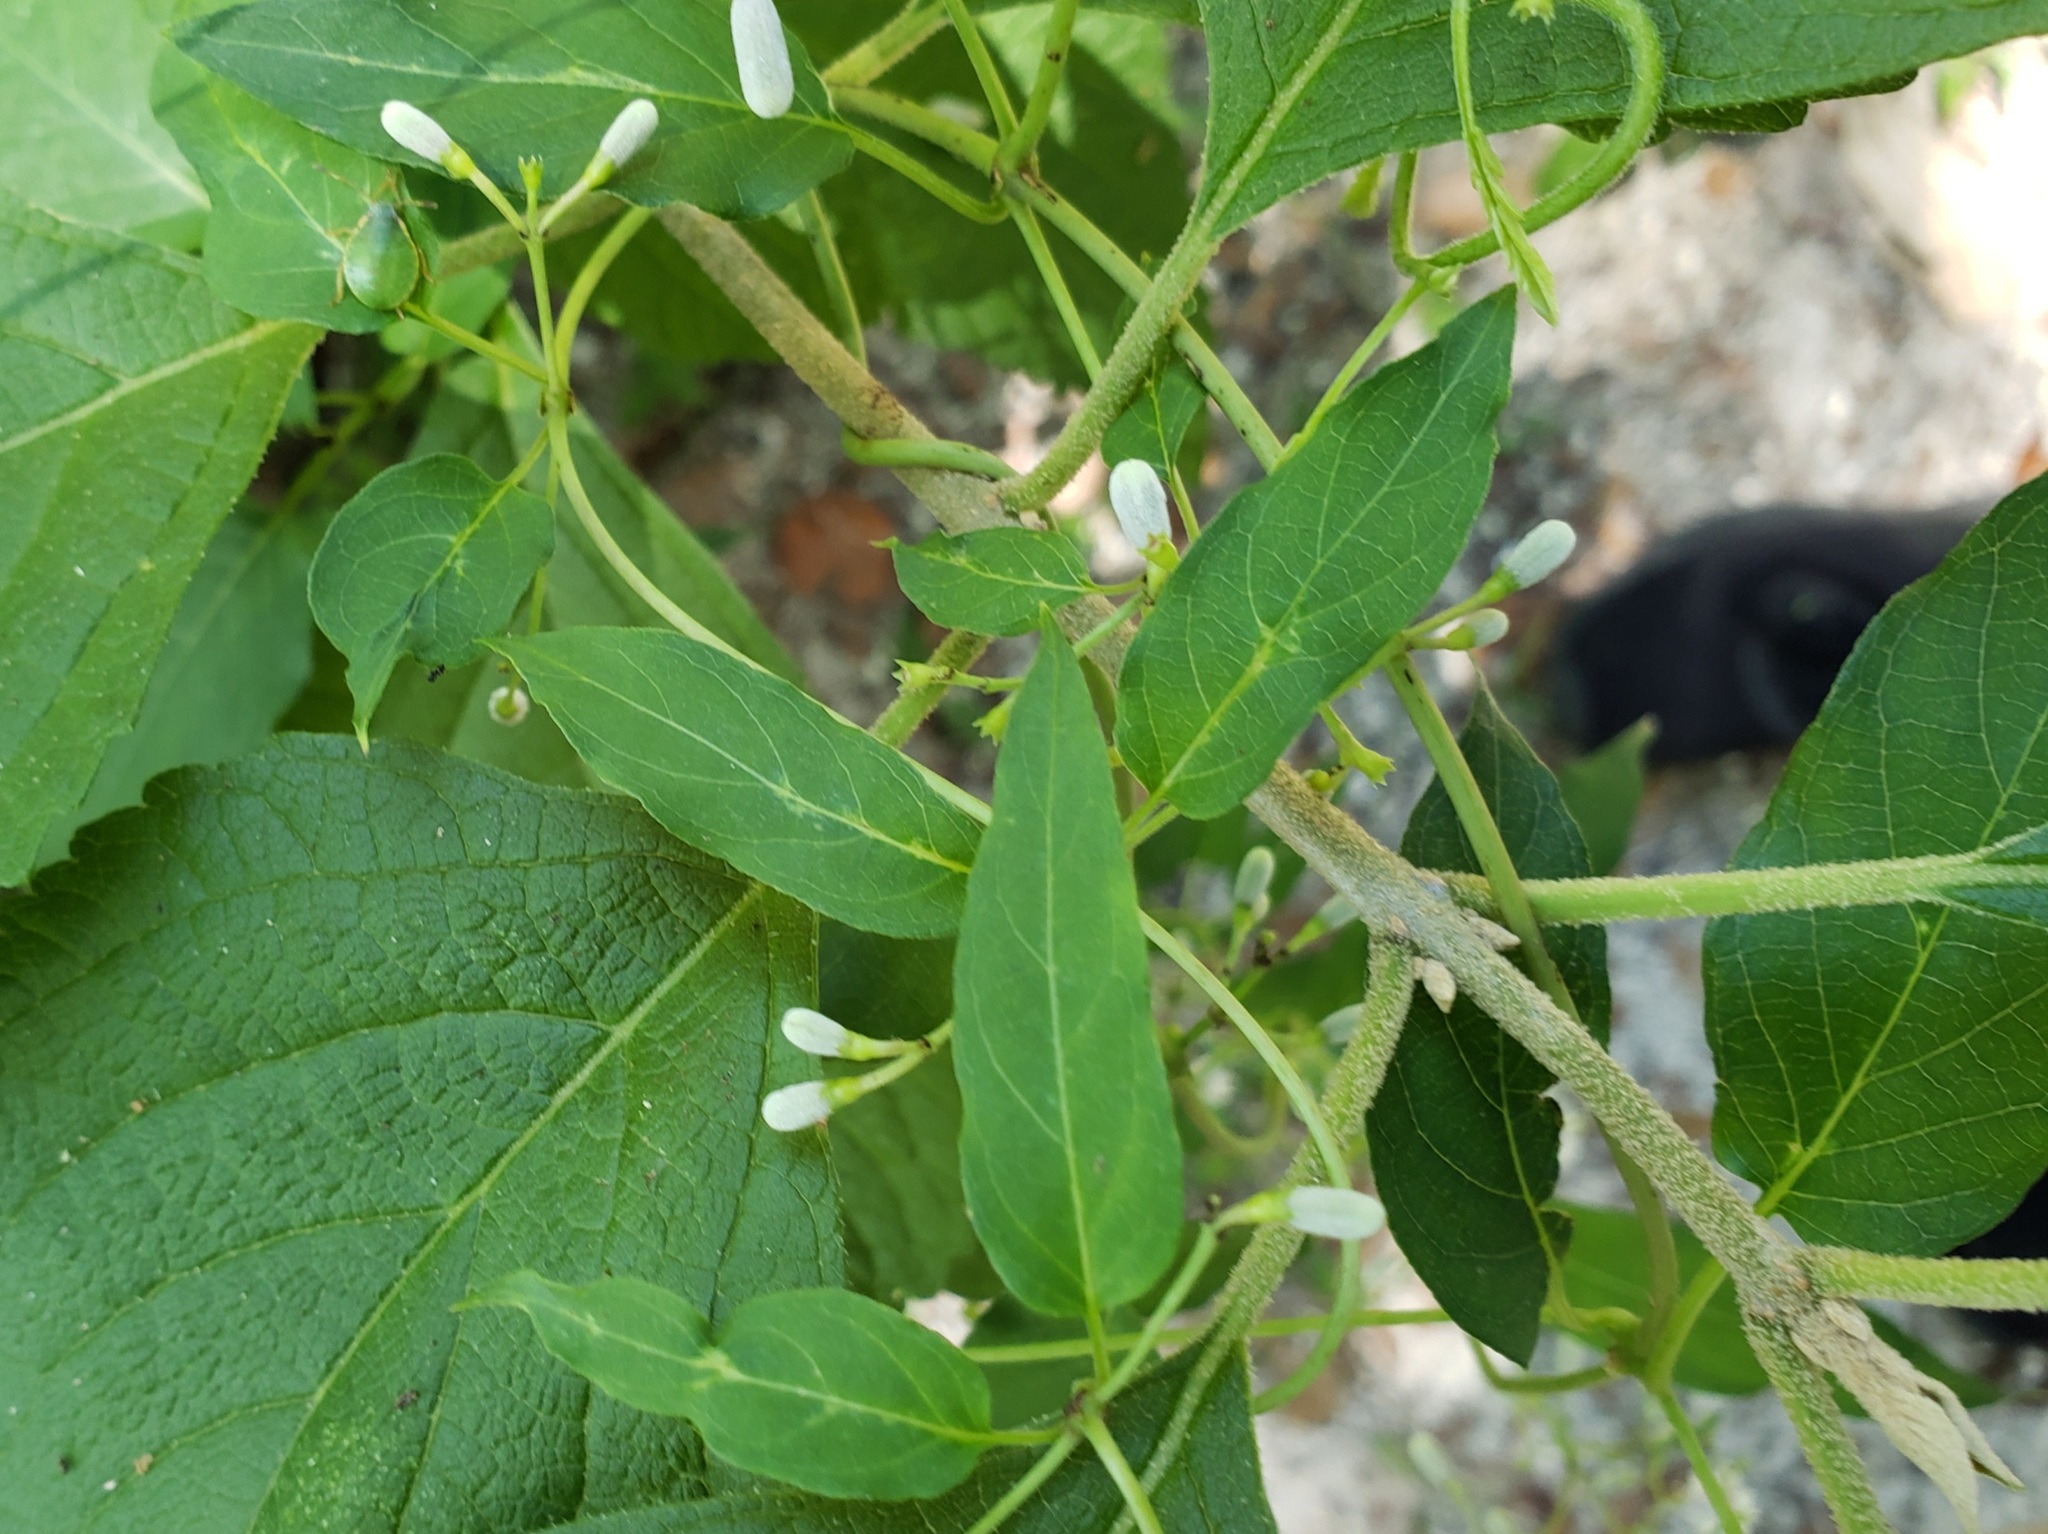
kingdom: Plantae
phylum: Tracheophyta
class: Magnoliopsida
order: Gentianales
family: Rubiaceae
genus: Paederia
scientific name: Paederia foetida
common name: Stinkvine
